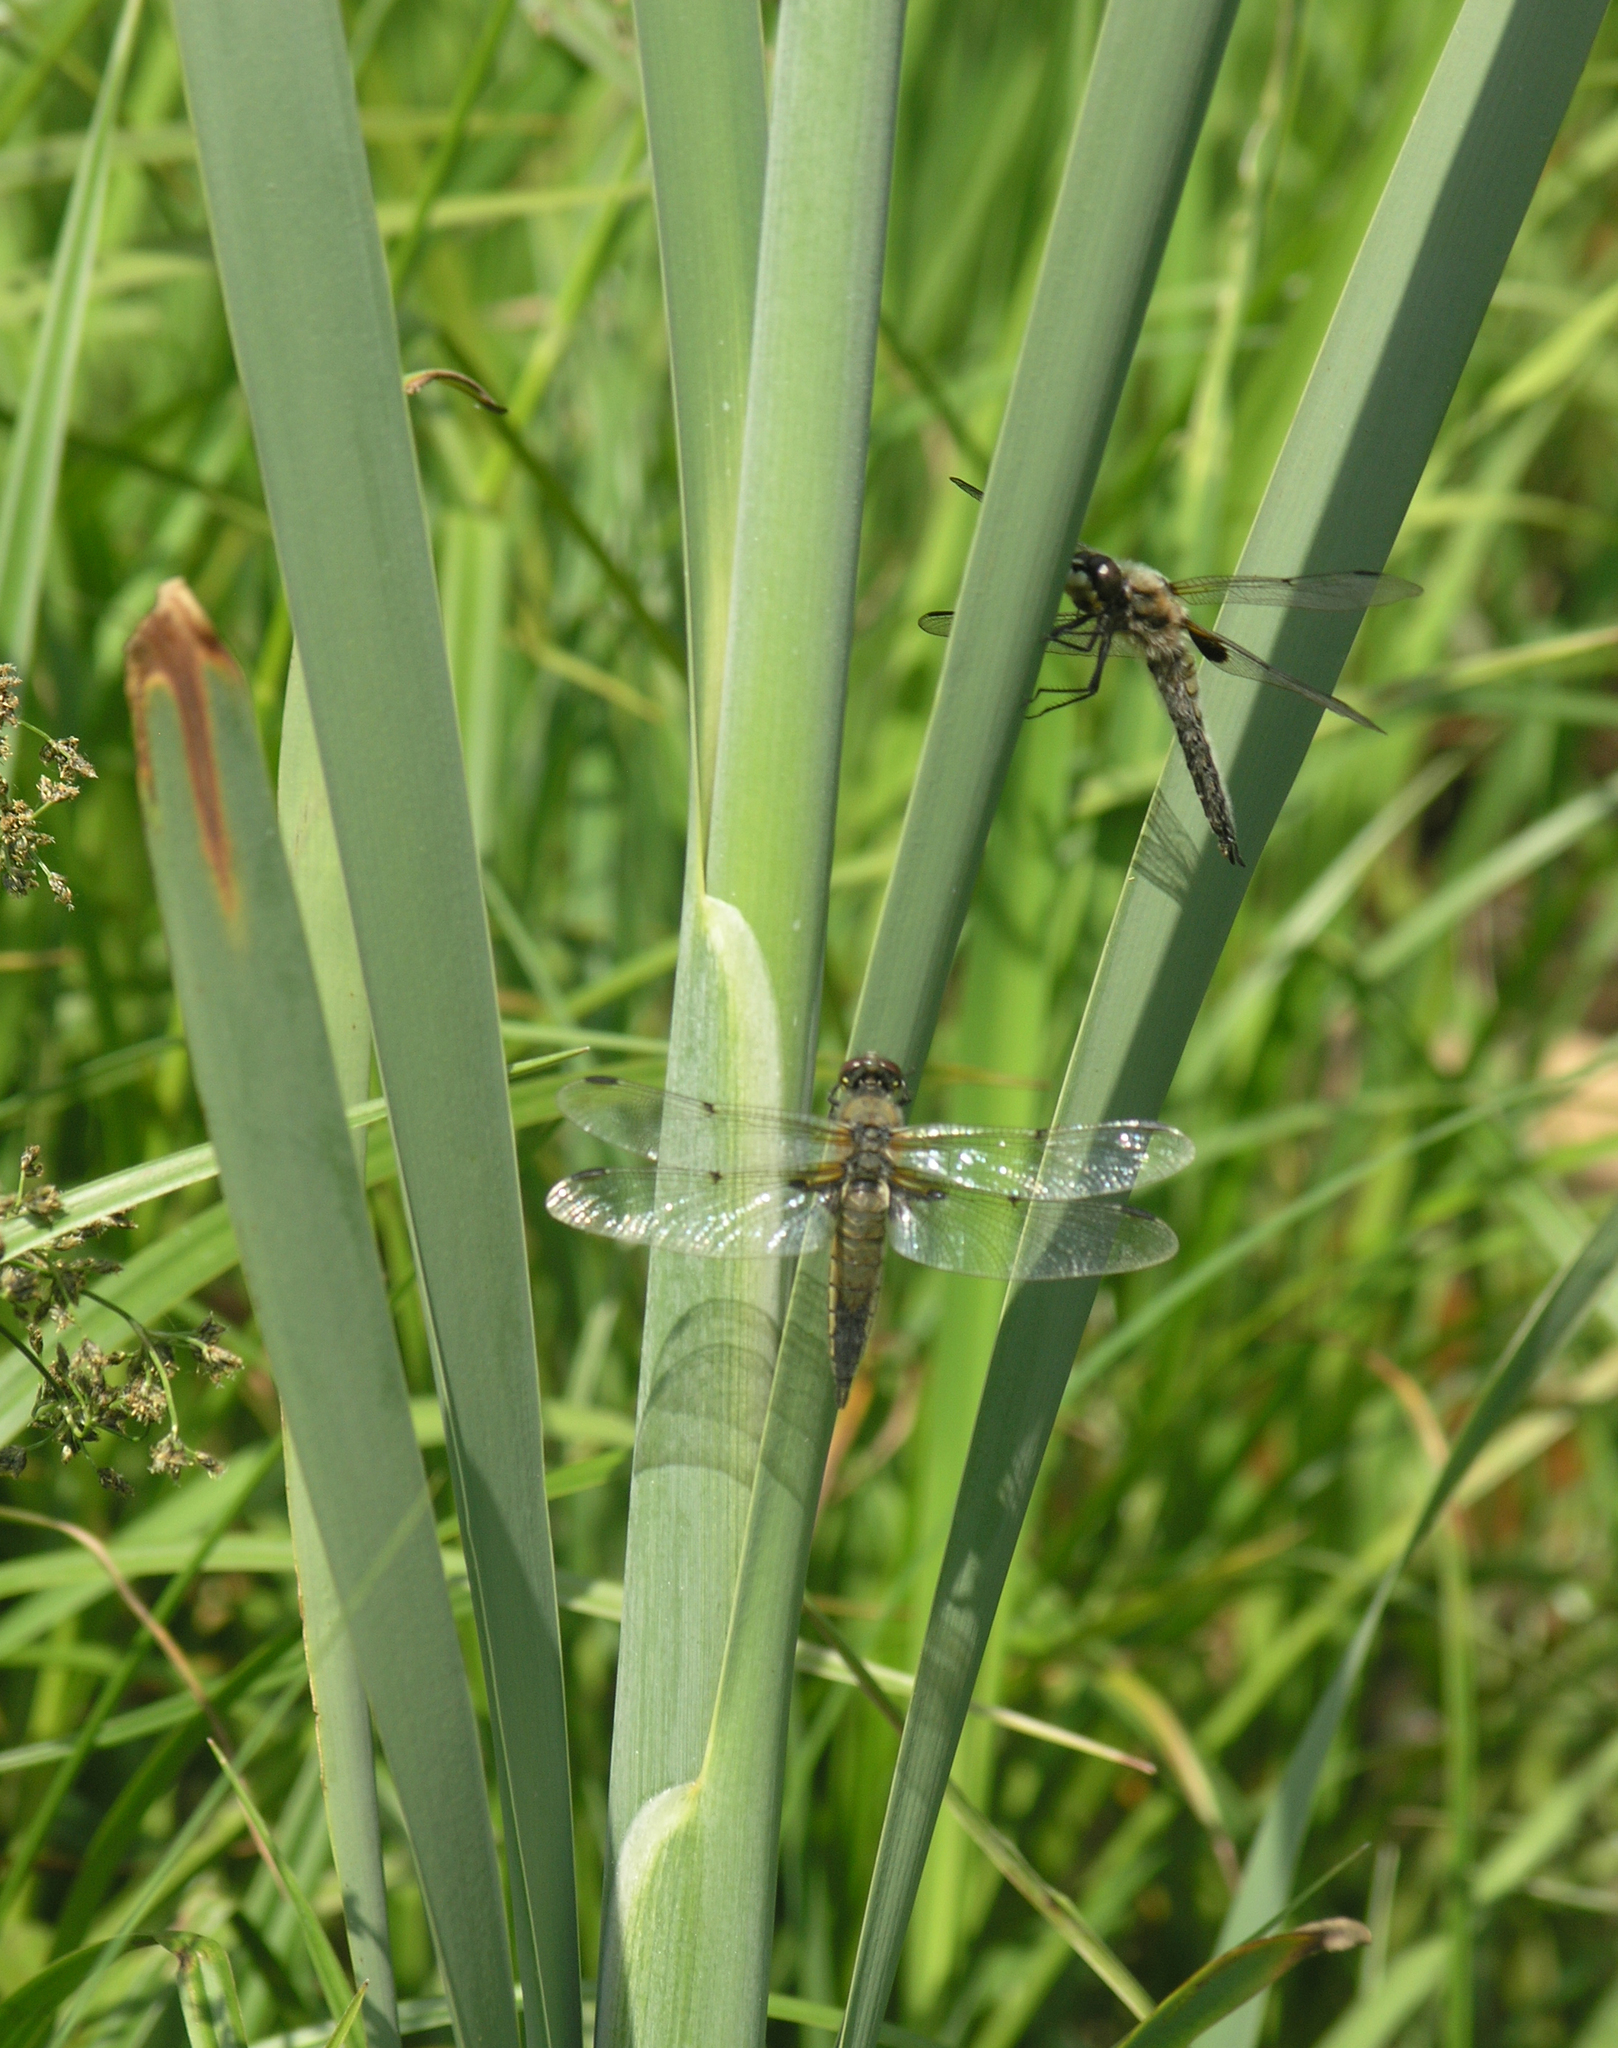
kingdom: Animalia
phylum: Arthropoda
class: Insecta
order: Odonata
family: Libellulidae
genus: Libellula
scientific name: Libellula quadrimaculata
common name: Four-spotted chaser
